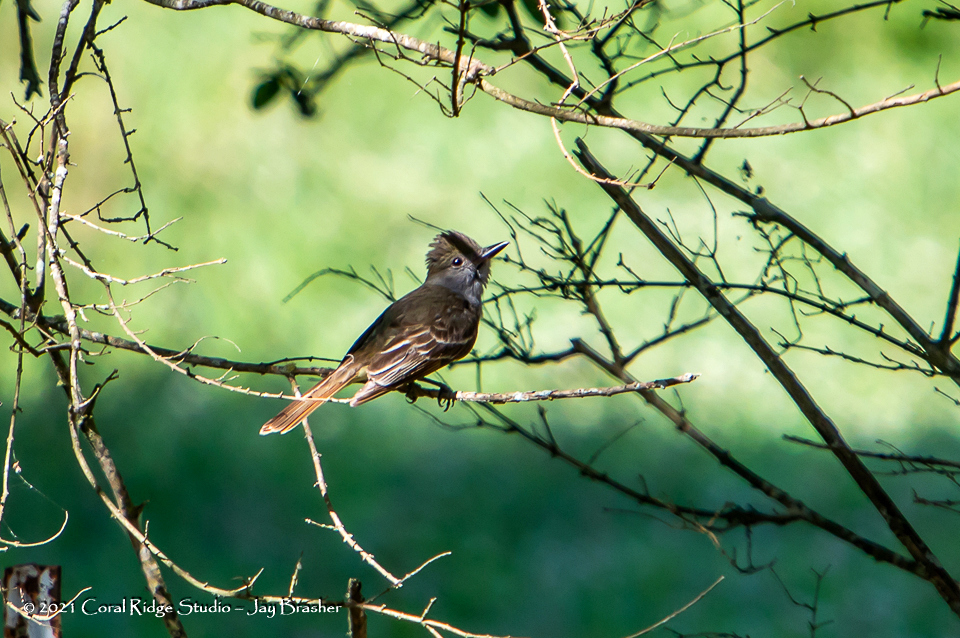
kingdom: Animalia
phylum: Chordata
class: Aves
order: Passeriformes
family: Tyrannidae
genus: Myiarchus
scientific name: Myiarchus crinitus
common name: Great crested flycatcher
